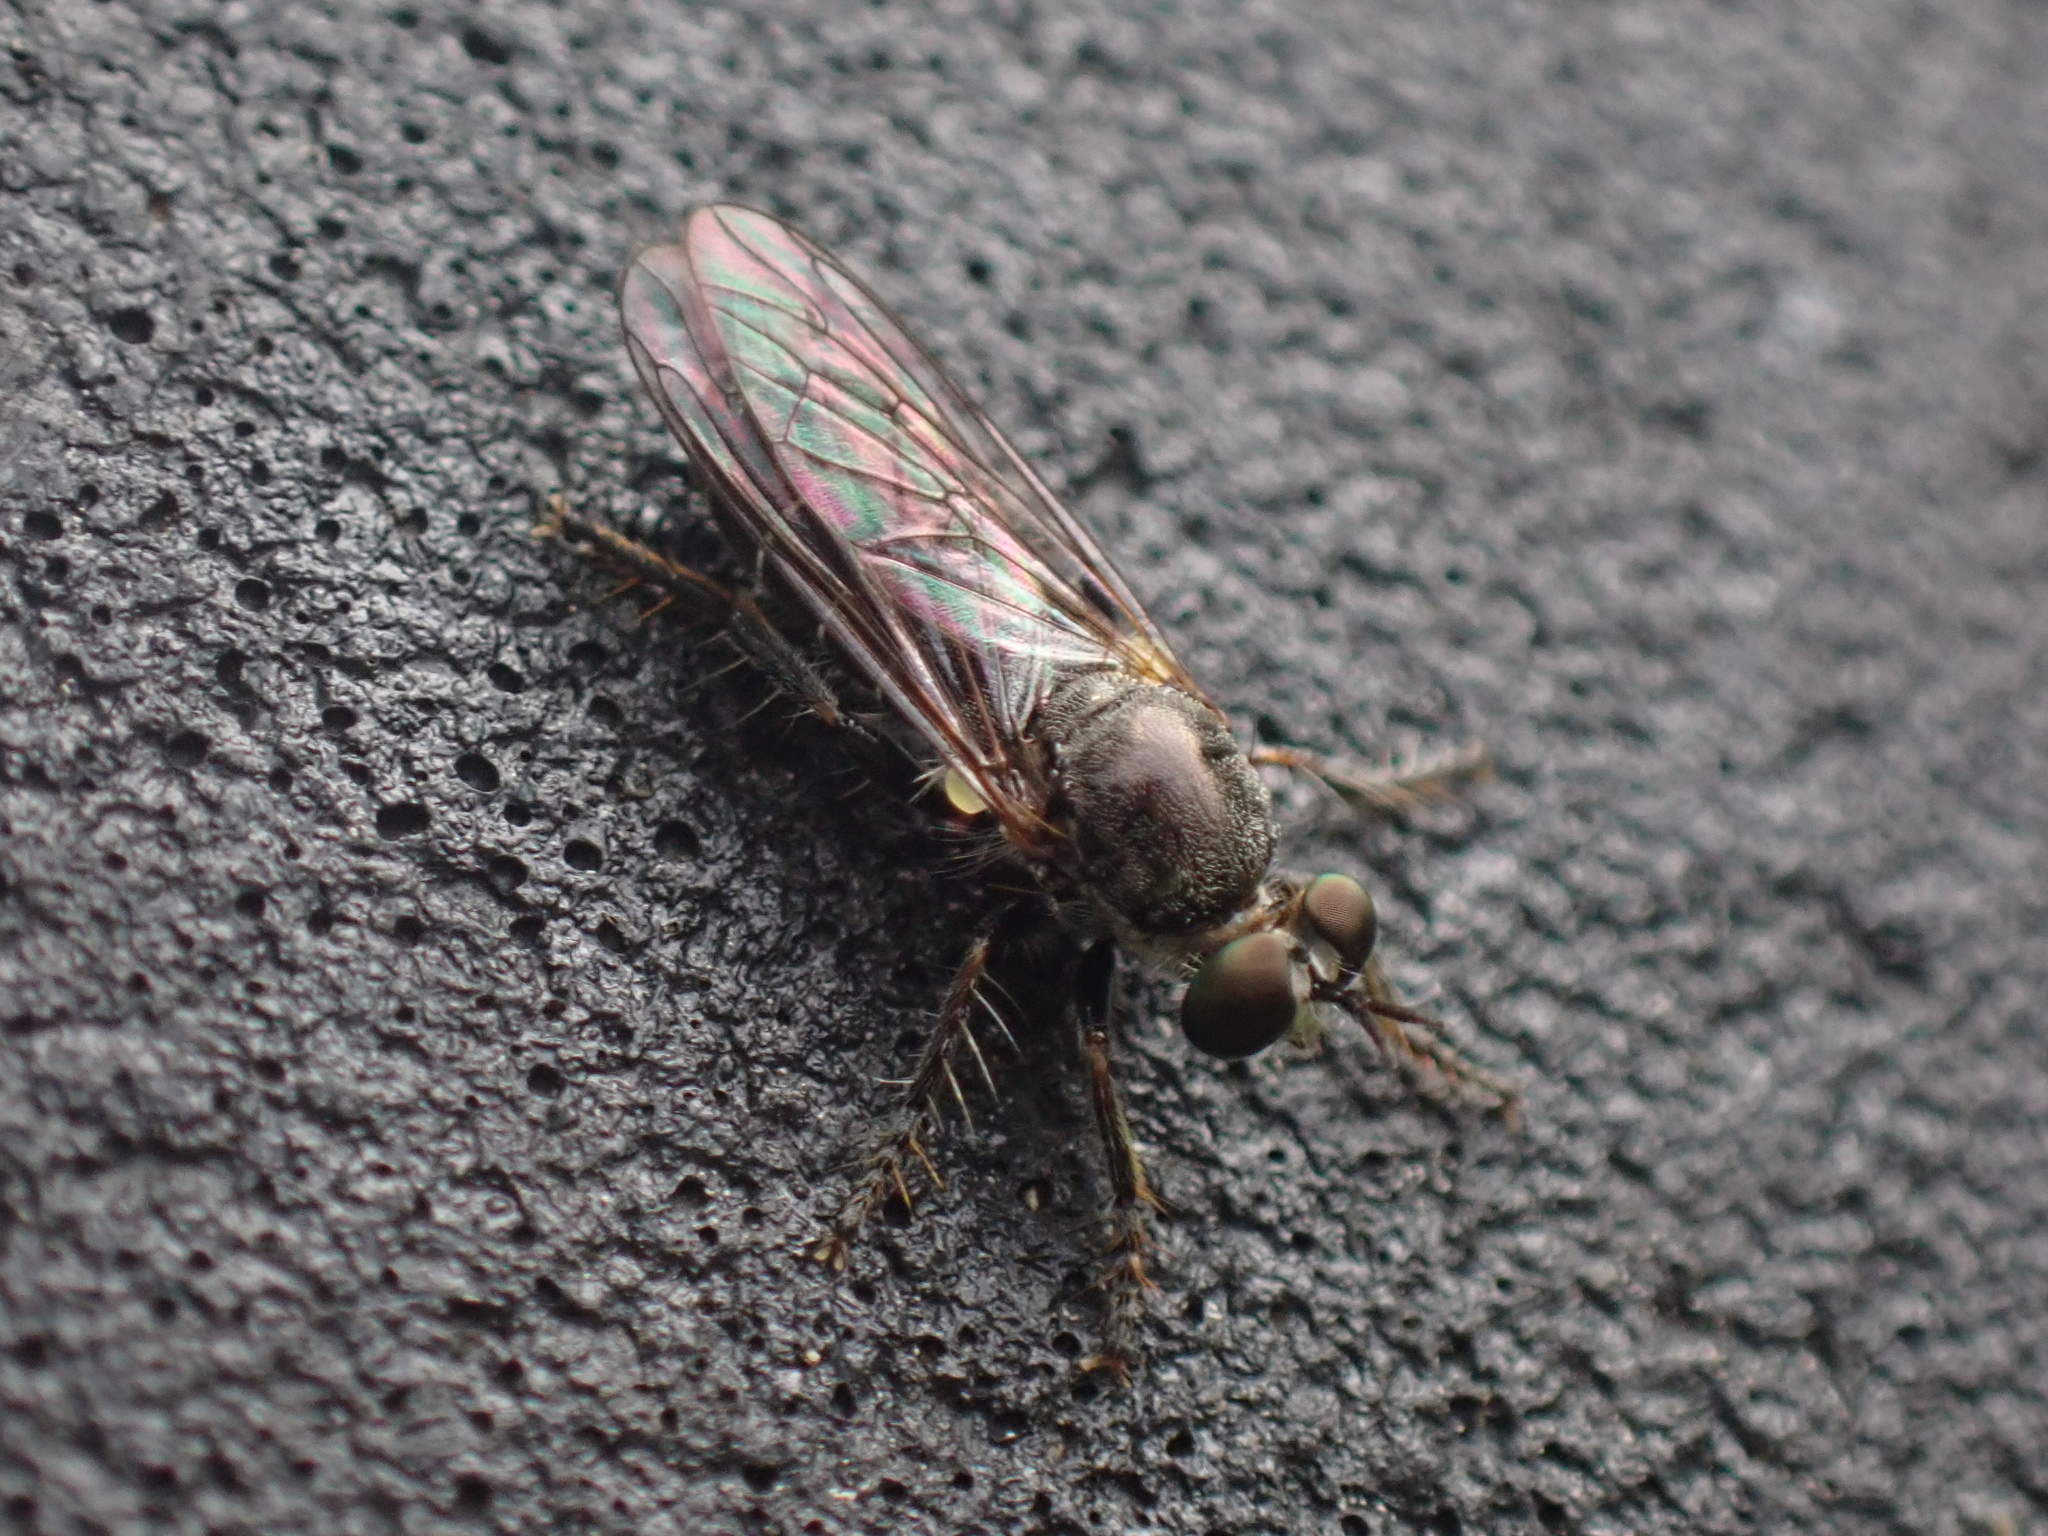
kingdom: Animalia
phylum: Arthropoda
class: Insecta
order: Diptera
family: Asilidae
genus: Atomosia
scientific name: Atomosia puella
